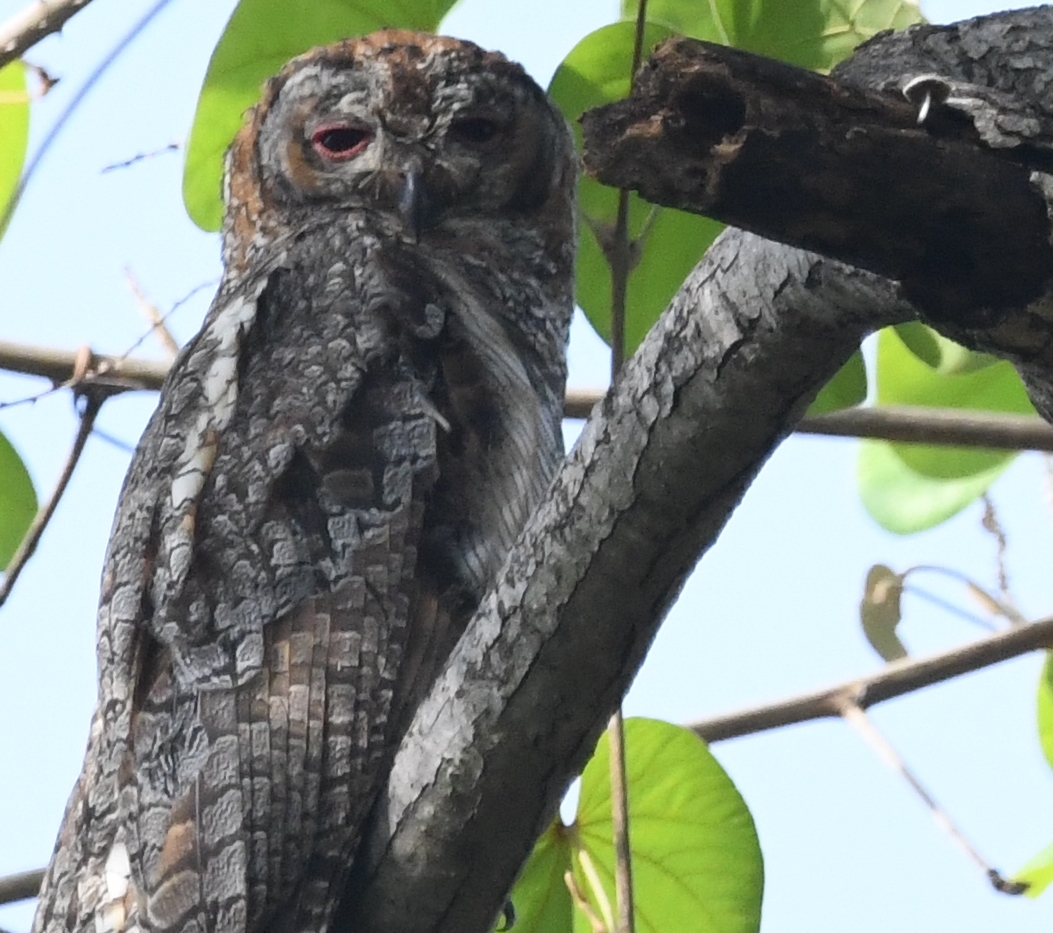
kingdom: Animalia
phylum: Chordata
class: Aves
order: Strigiformes
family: Strigidae
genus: Strix
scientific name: Strix ocellata
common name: Mottled wood owl
